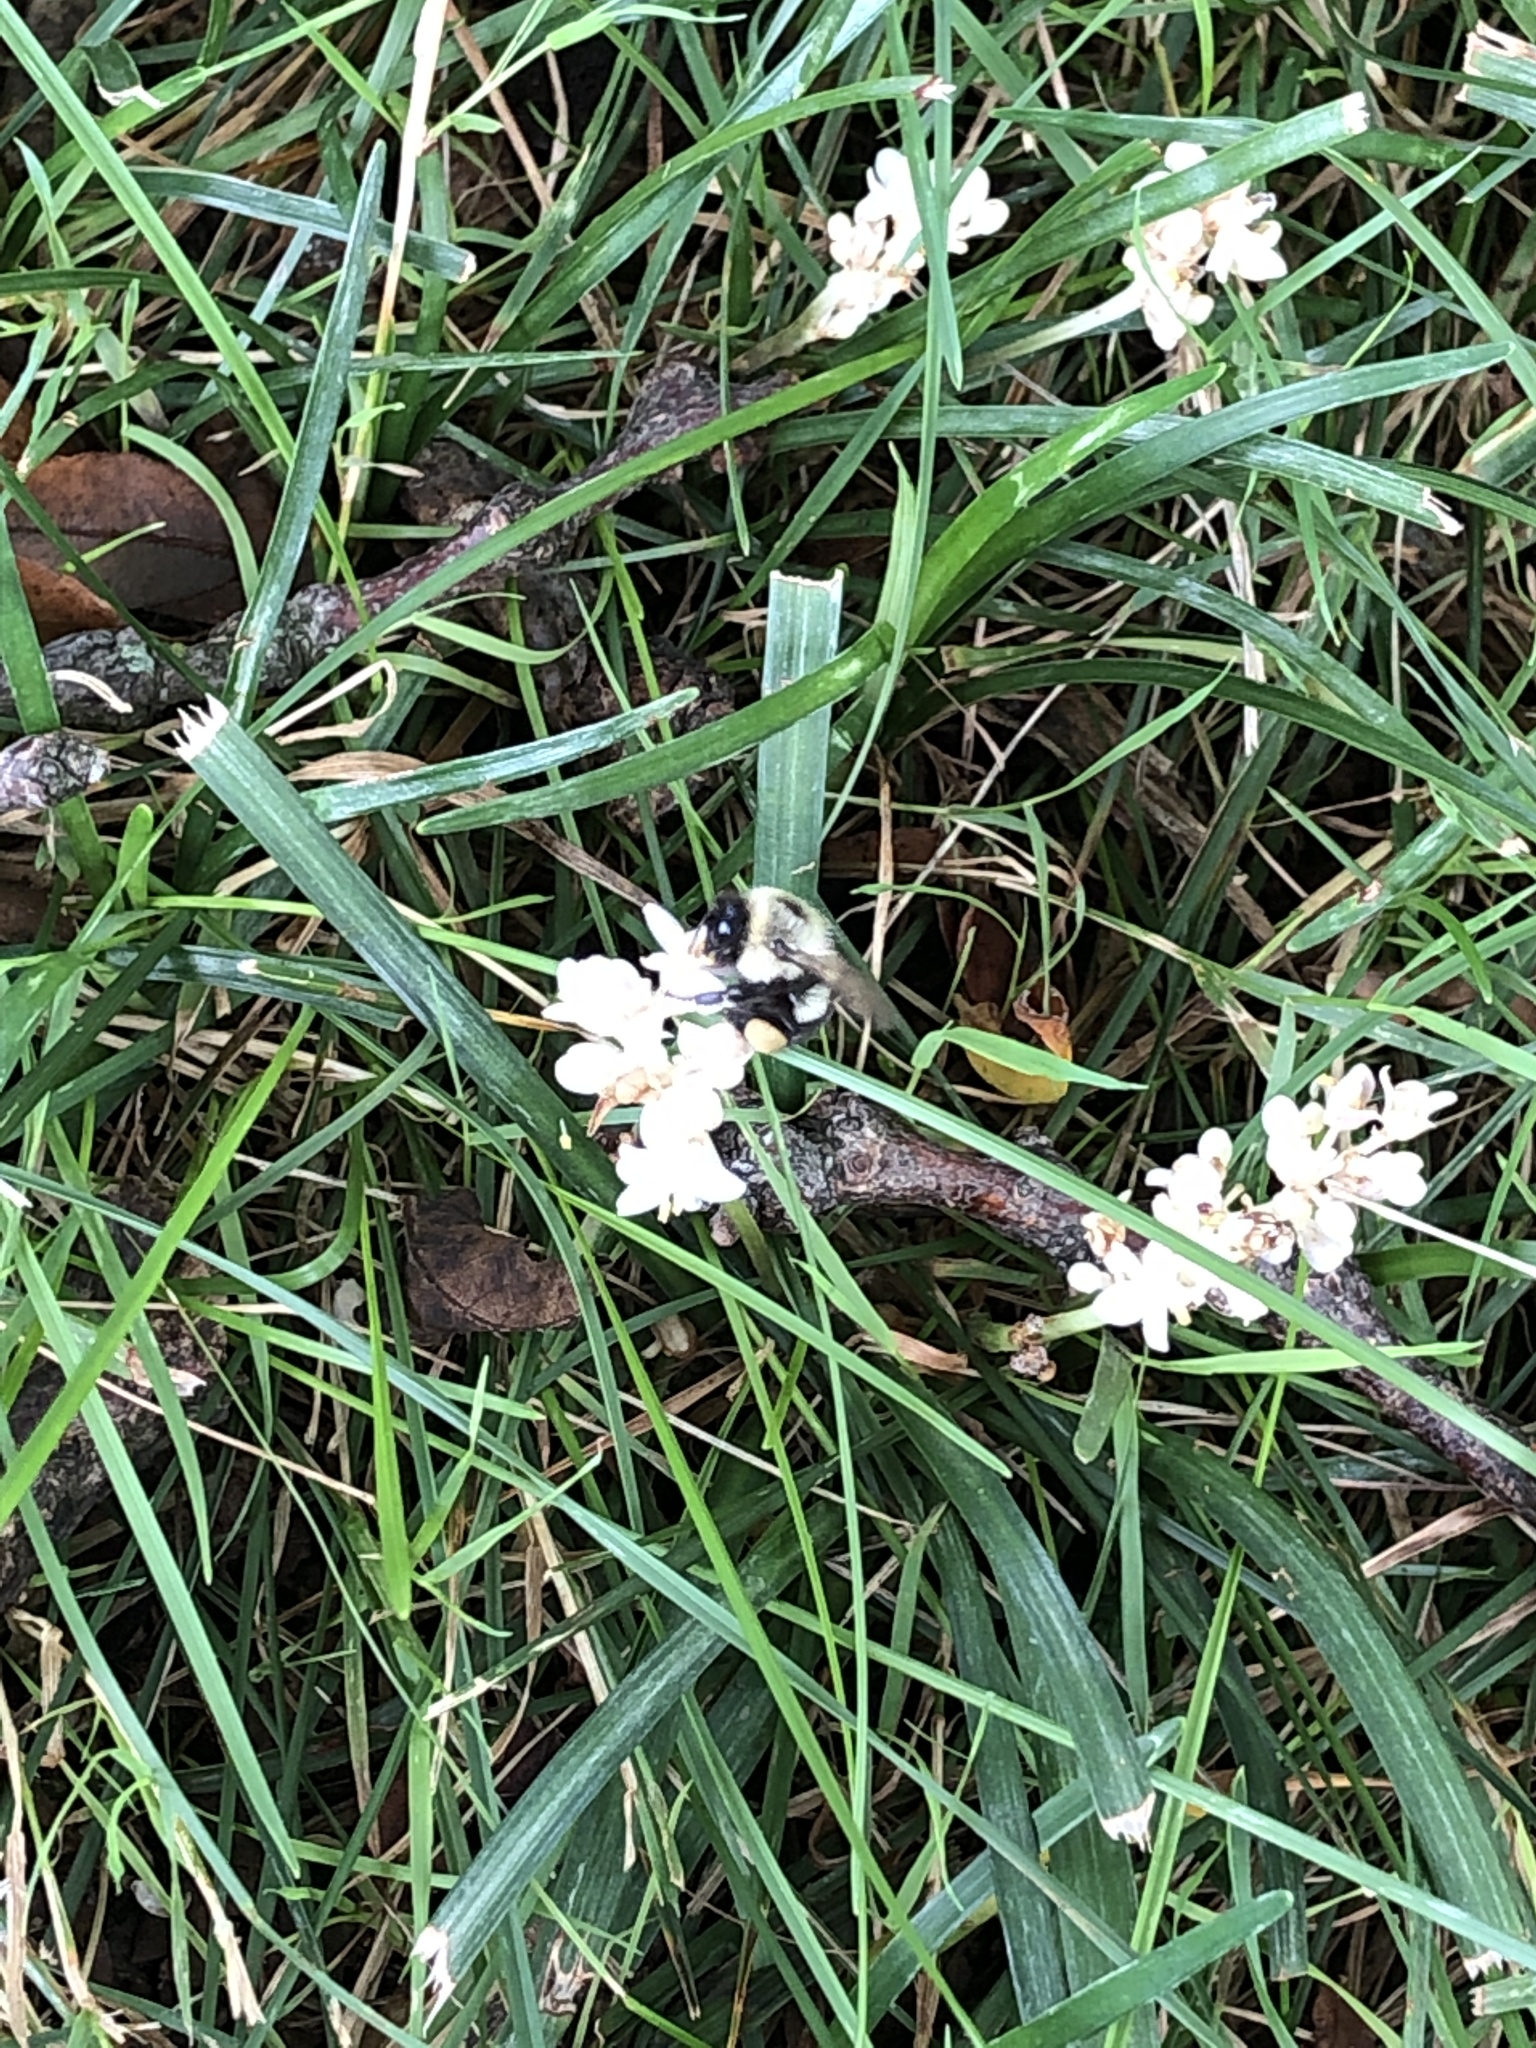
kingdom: Animalia
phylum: Arthropoda
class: Insecta
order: Hymenoptera
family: Apidae
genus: Bombus
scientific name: Bombus impatiens
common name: Common eastern bumble bee
